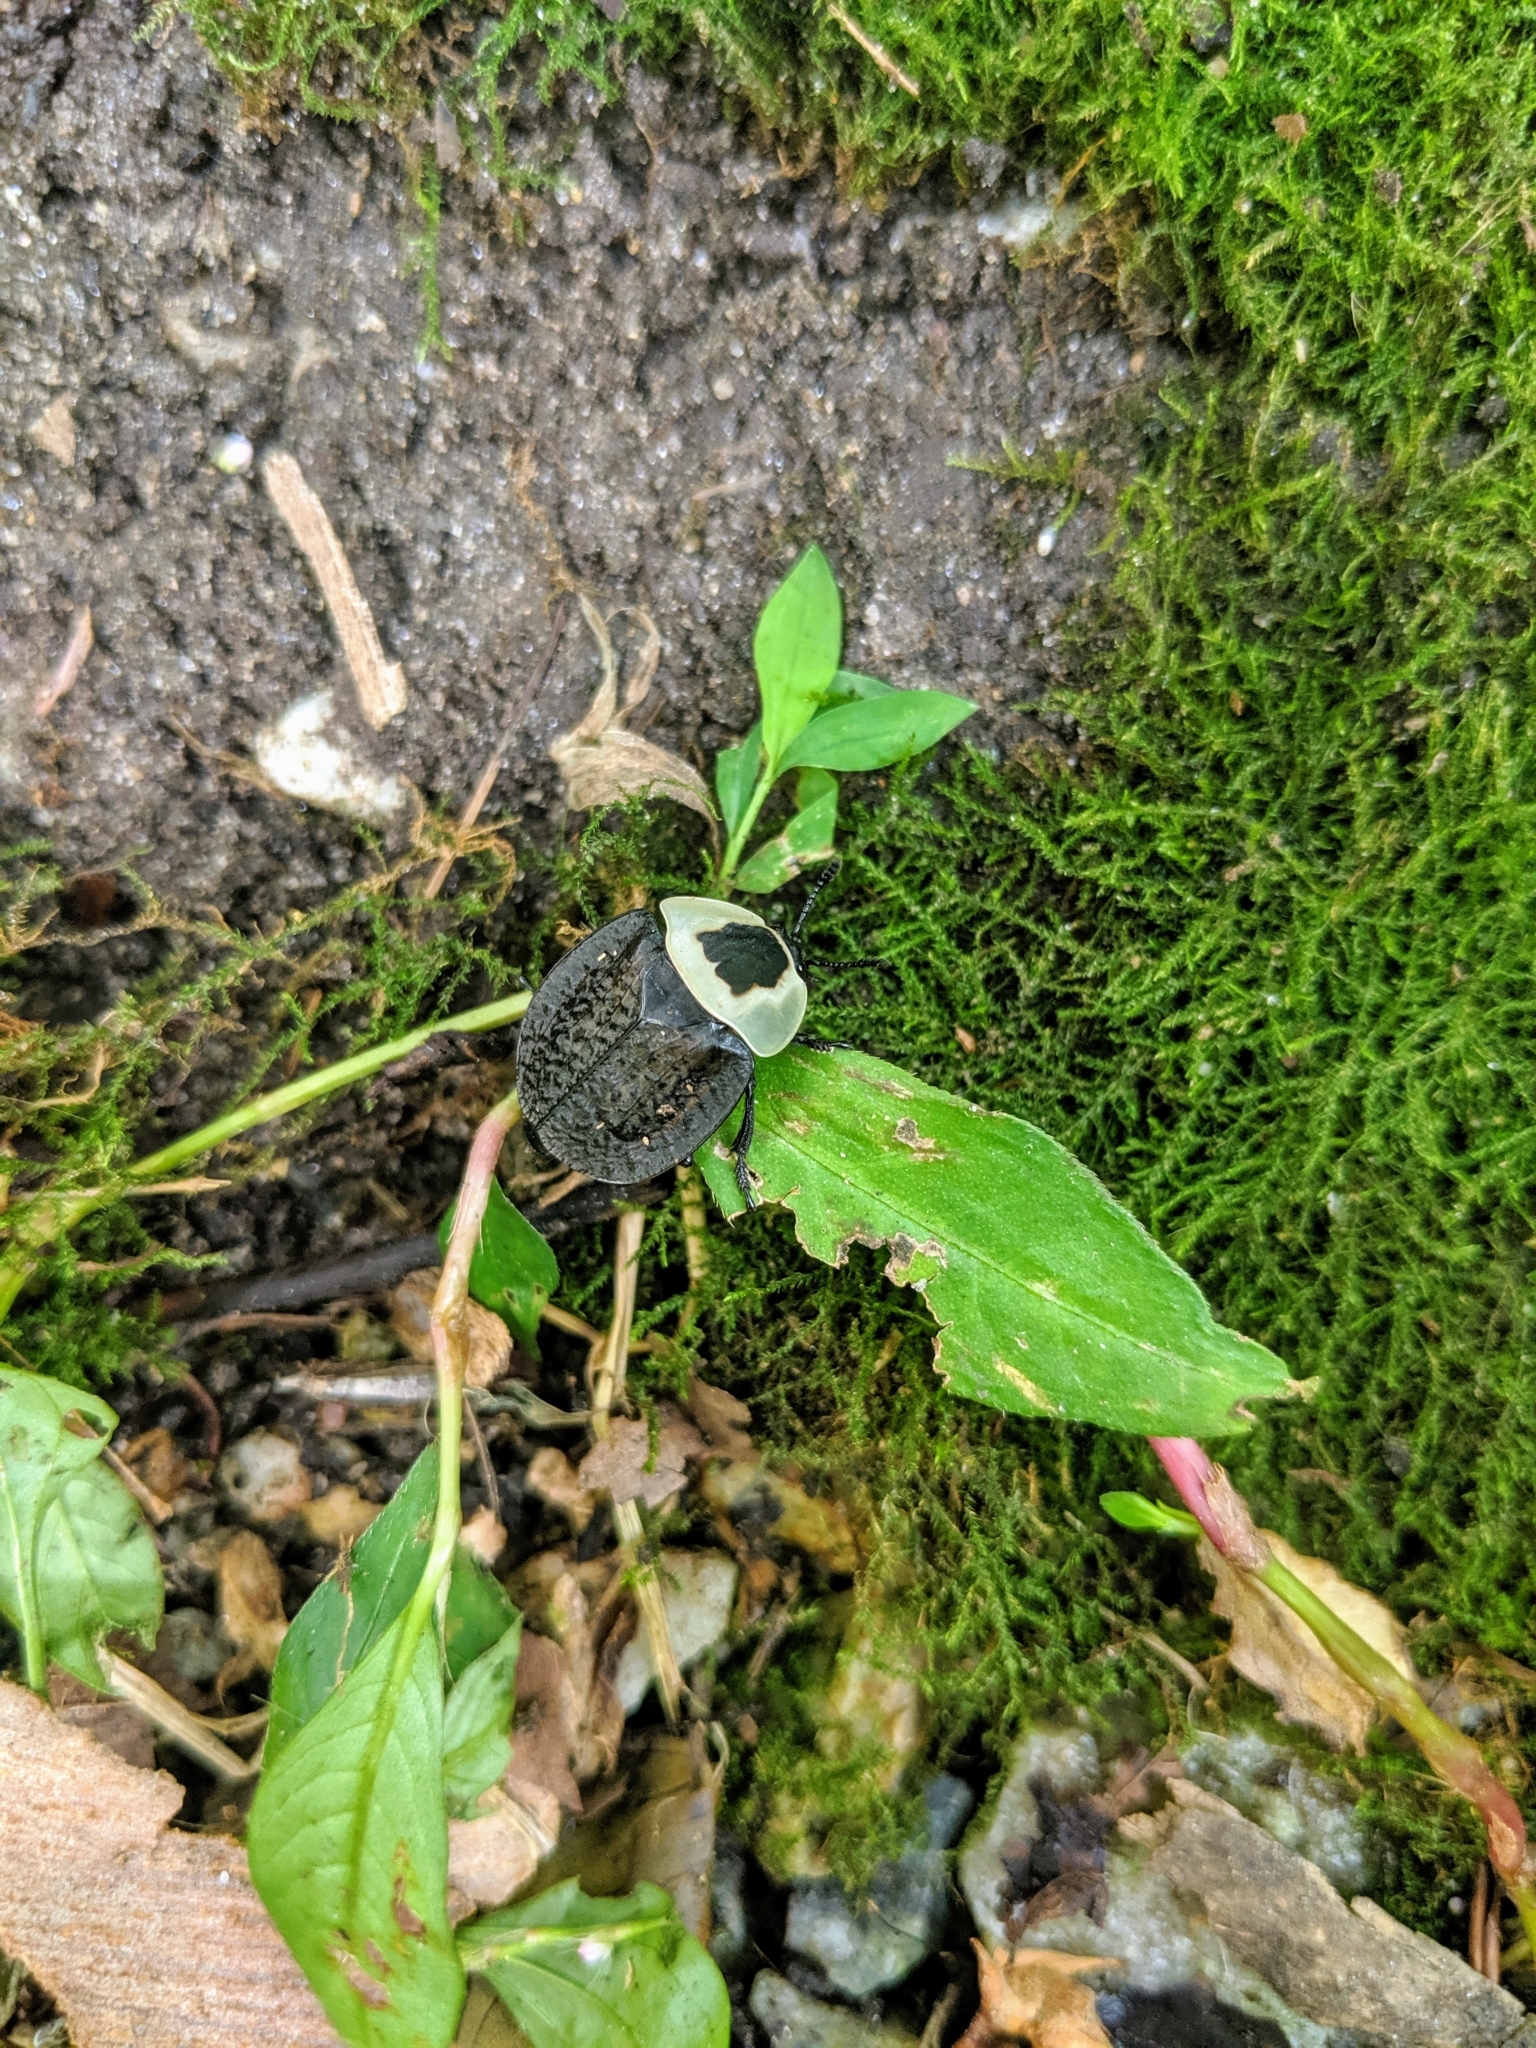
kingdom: Animalia
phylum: Arthropoda
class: Insecta
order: Coleoptera
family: Staphylinidae
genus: Necrophila
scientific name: Necrophila americana
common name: American carrion beetle
